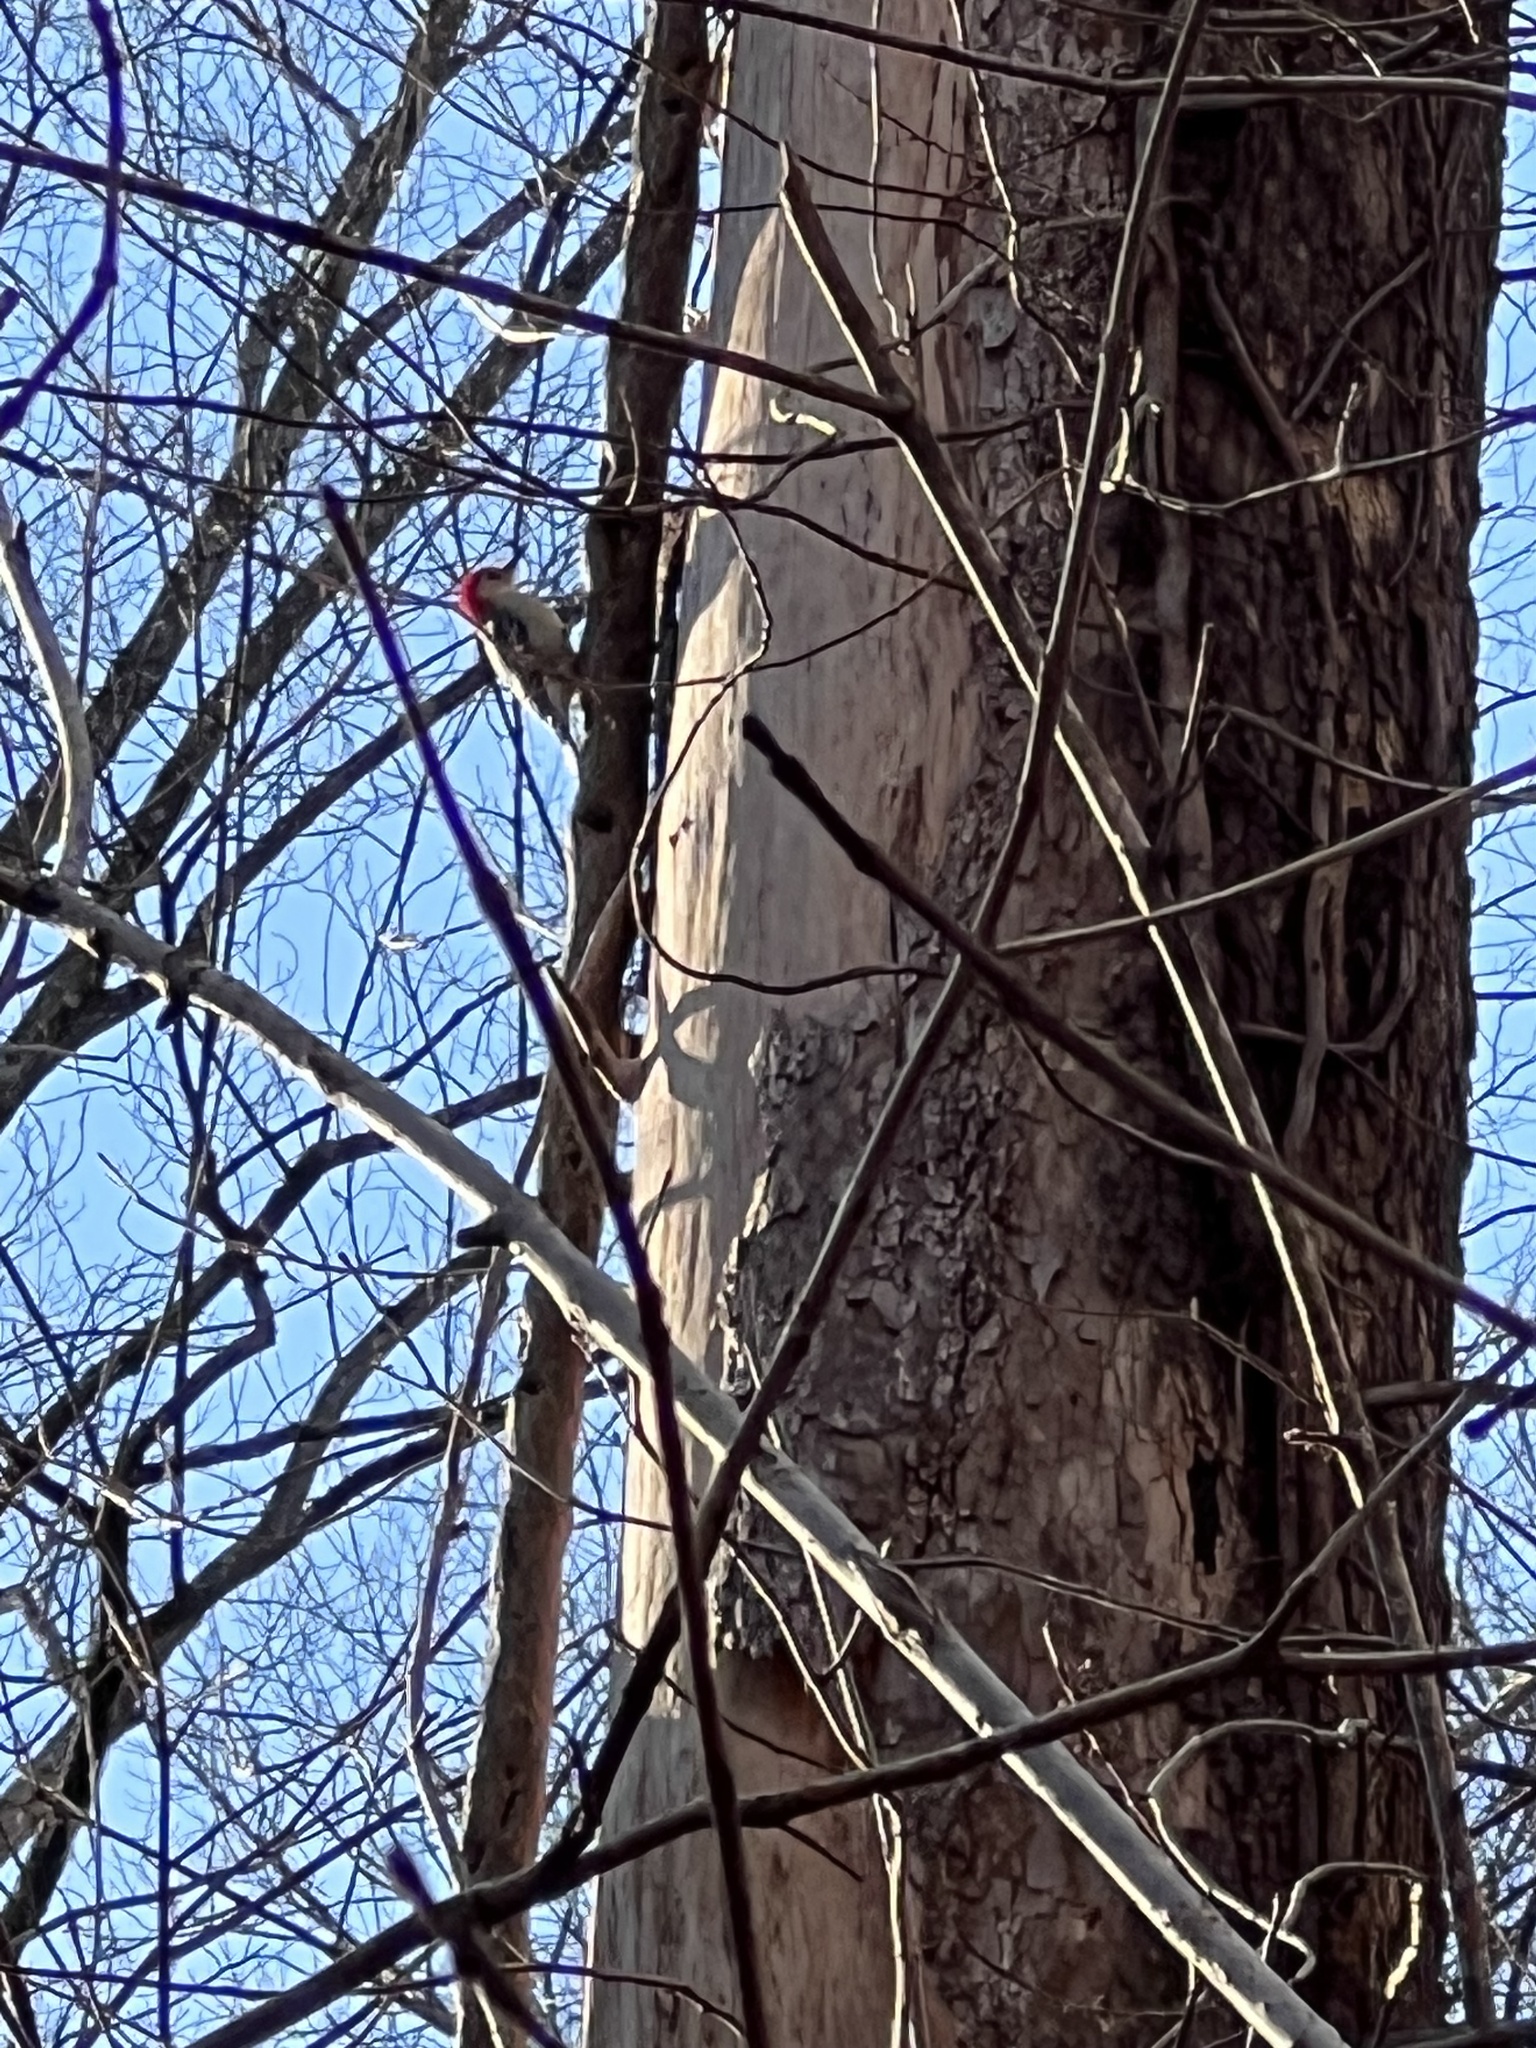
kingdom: Animalia
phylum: Chordata
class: Aves
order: Piciformes
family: Picidae
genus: Melanerpes
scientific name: Melanerpes carolinus
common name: Red-bellied woodpecker
